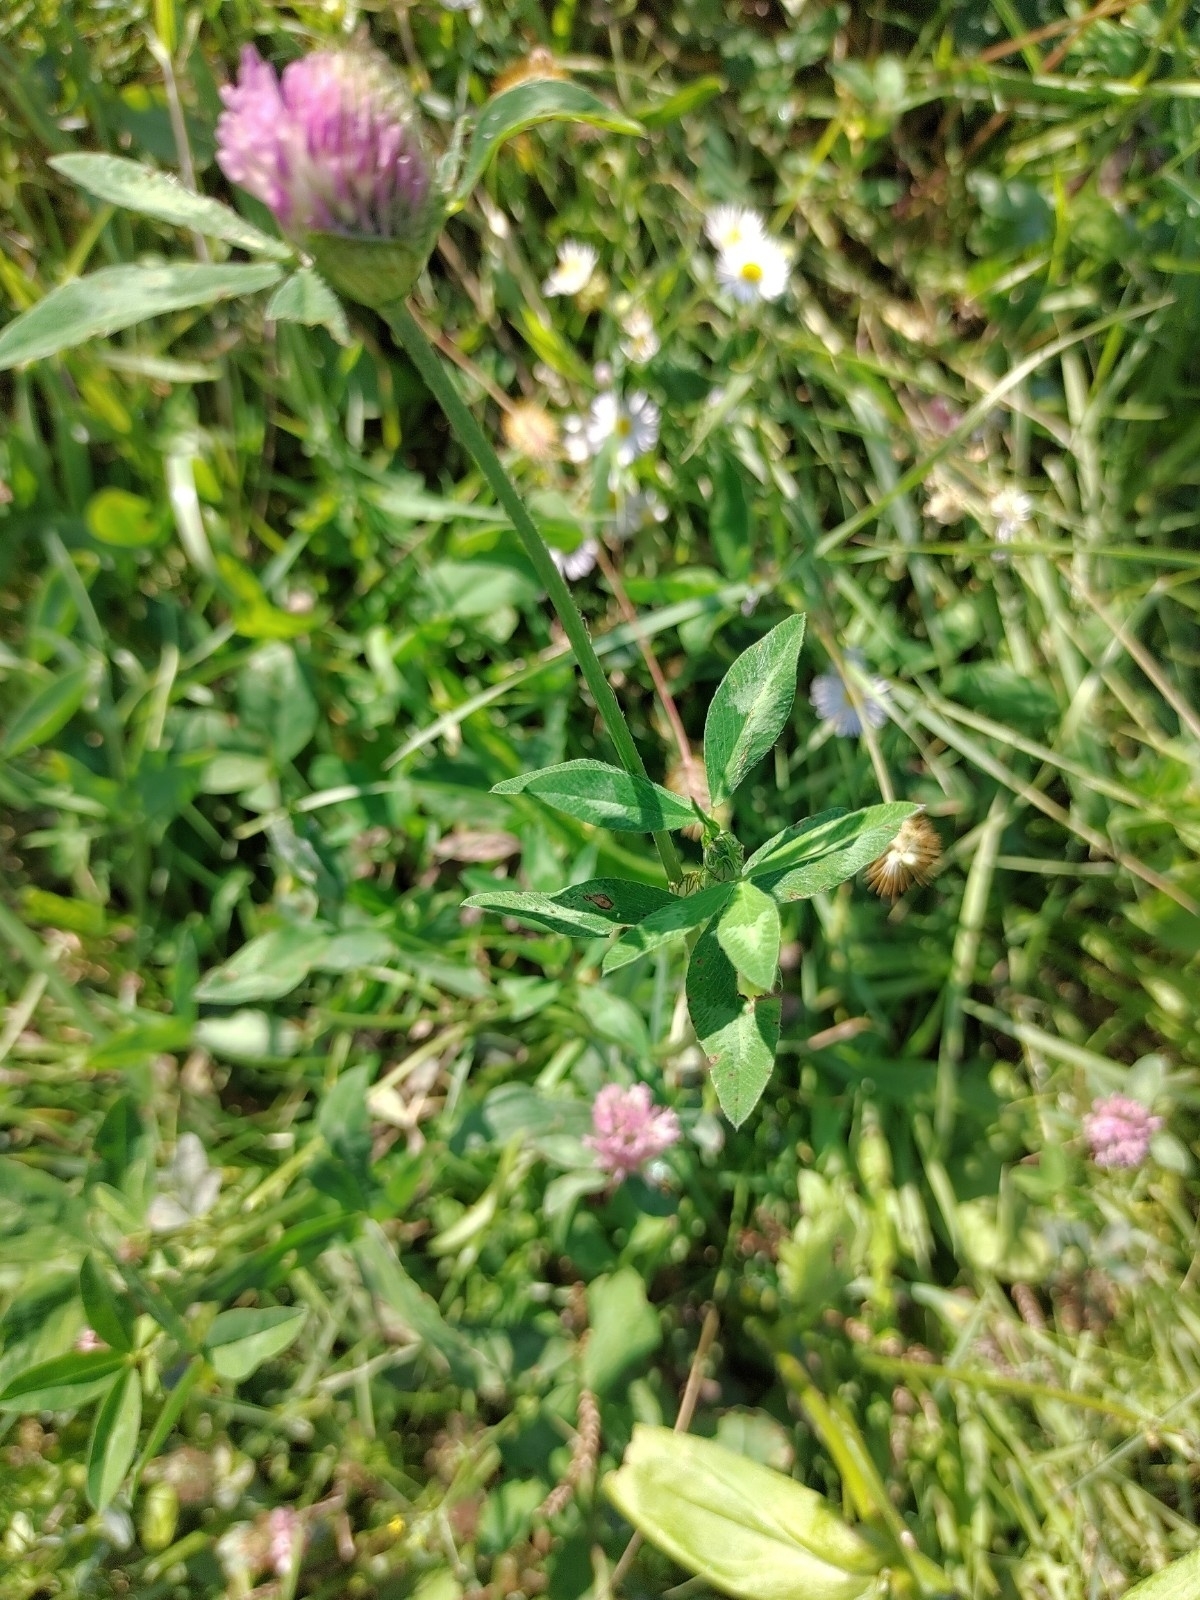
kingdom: Plantae
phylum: Tracheophyta
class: Magnoliopsida
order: Fabales
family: Fabaceae
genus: Trifolium
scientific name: Trifolium pratense
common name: Red clover
